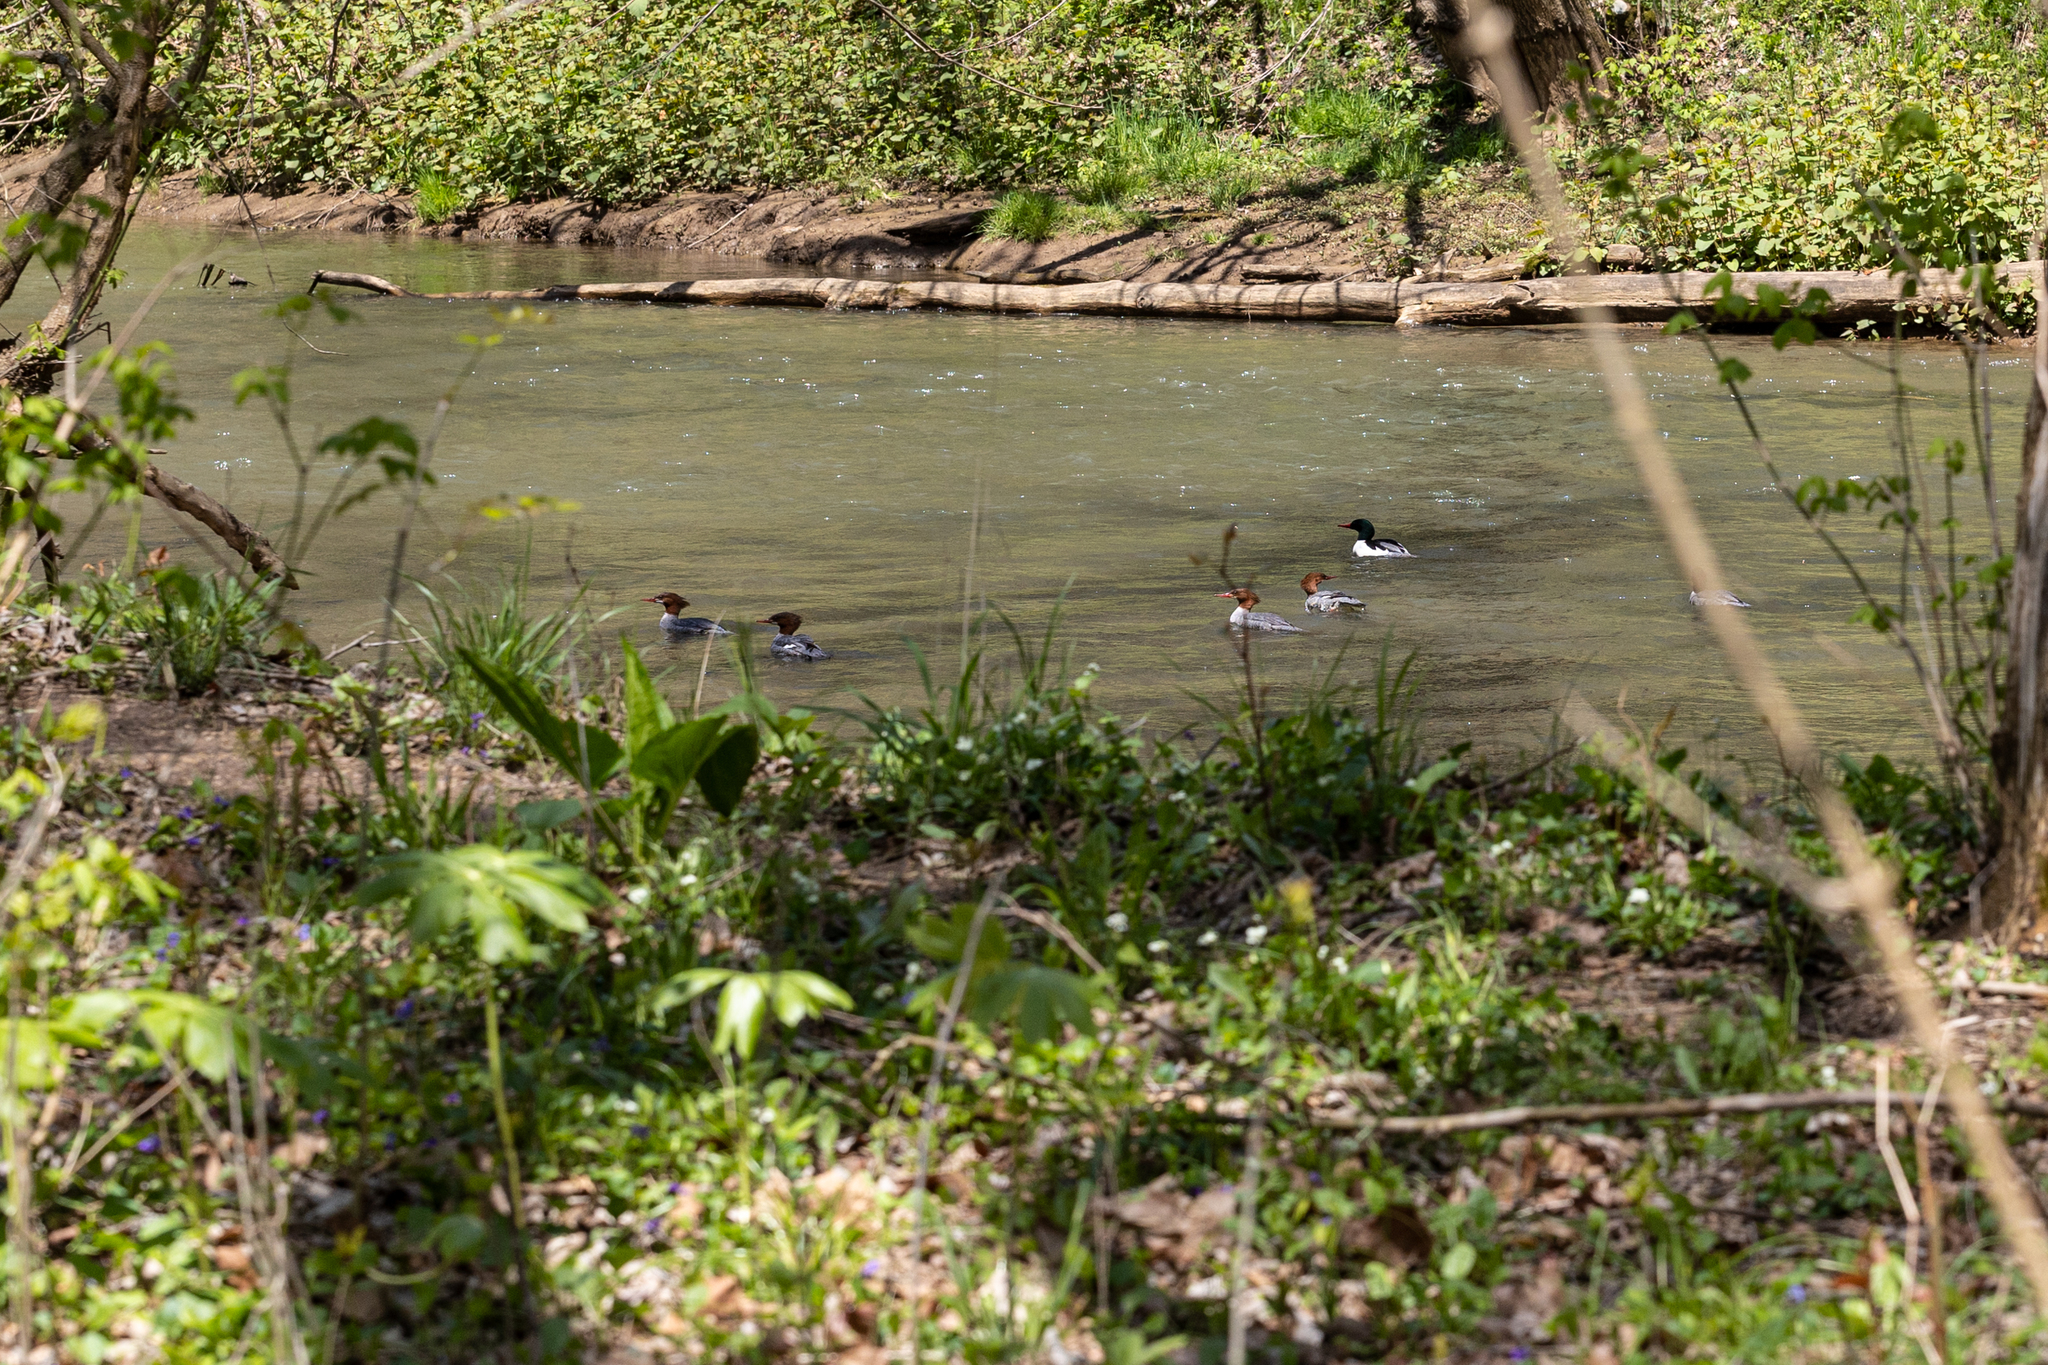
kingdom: Animalia
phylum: Chordata
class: Aves
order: Anseriformes
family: Anatidae
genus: Mergus
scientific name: Mergus merganser
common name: Common merganser
